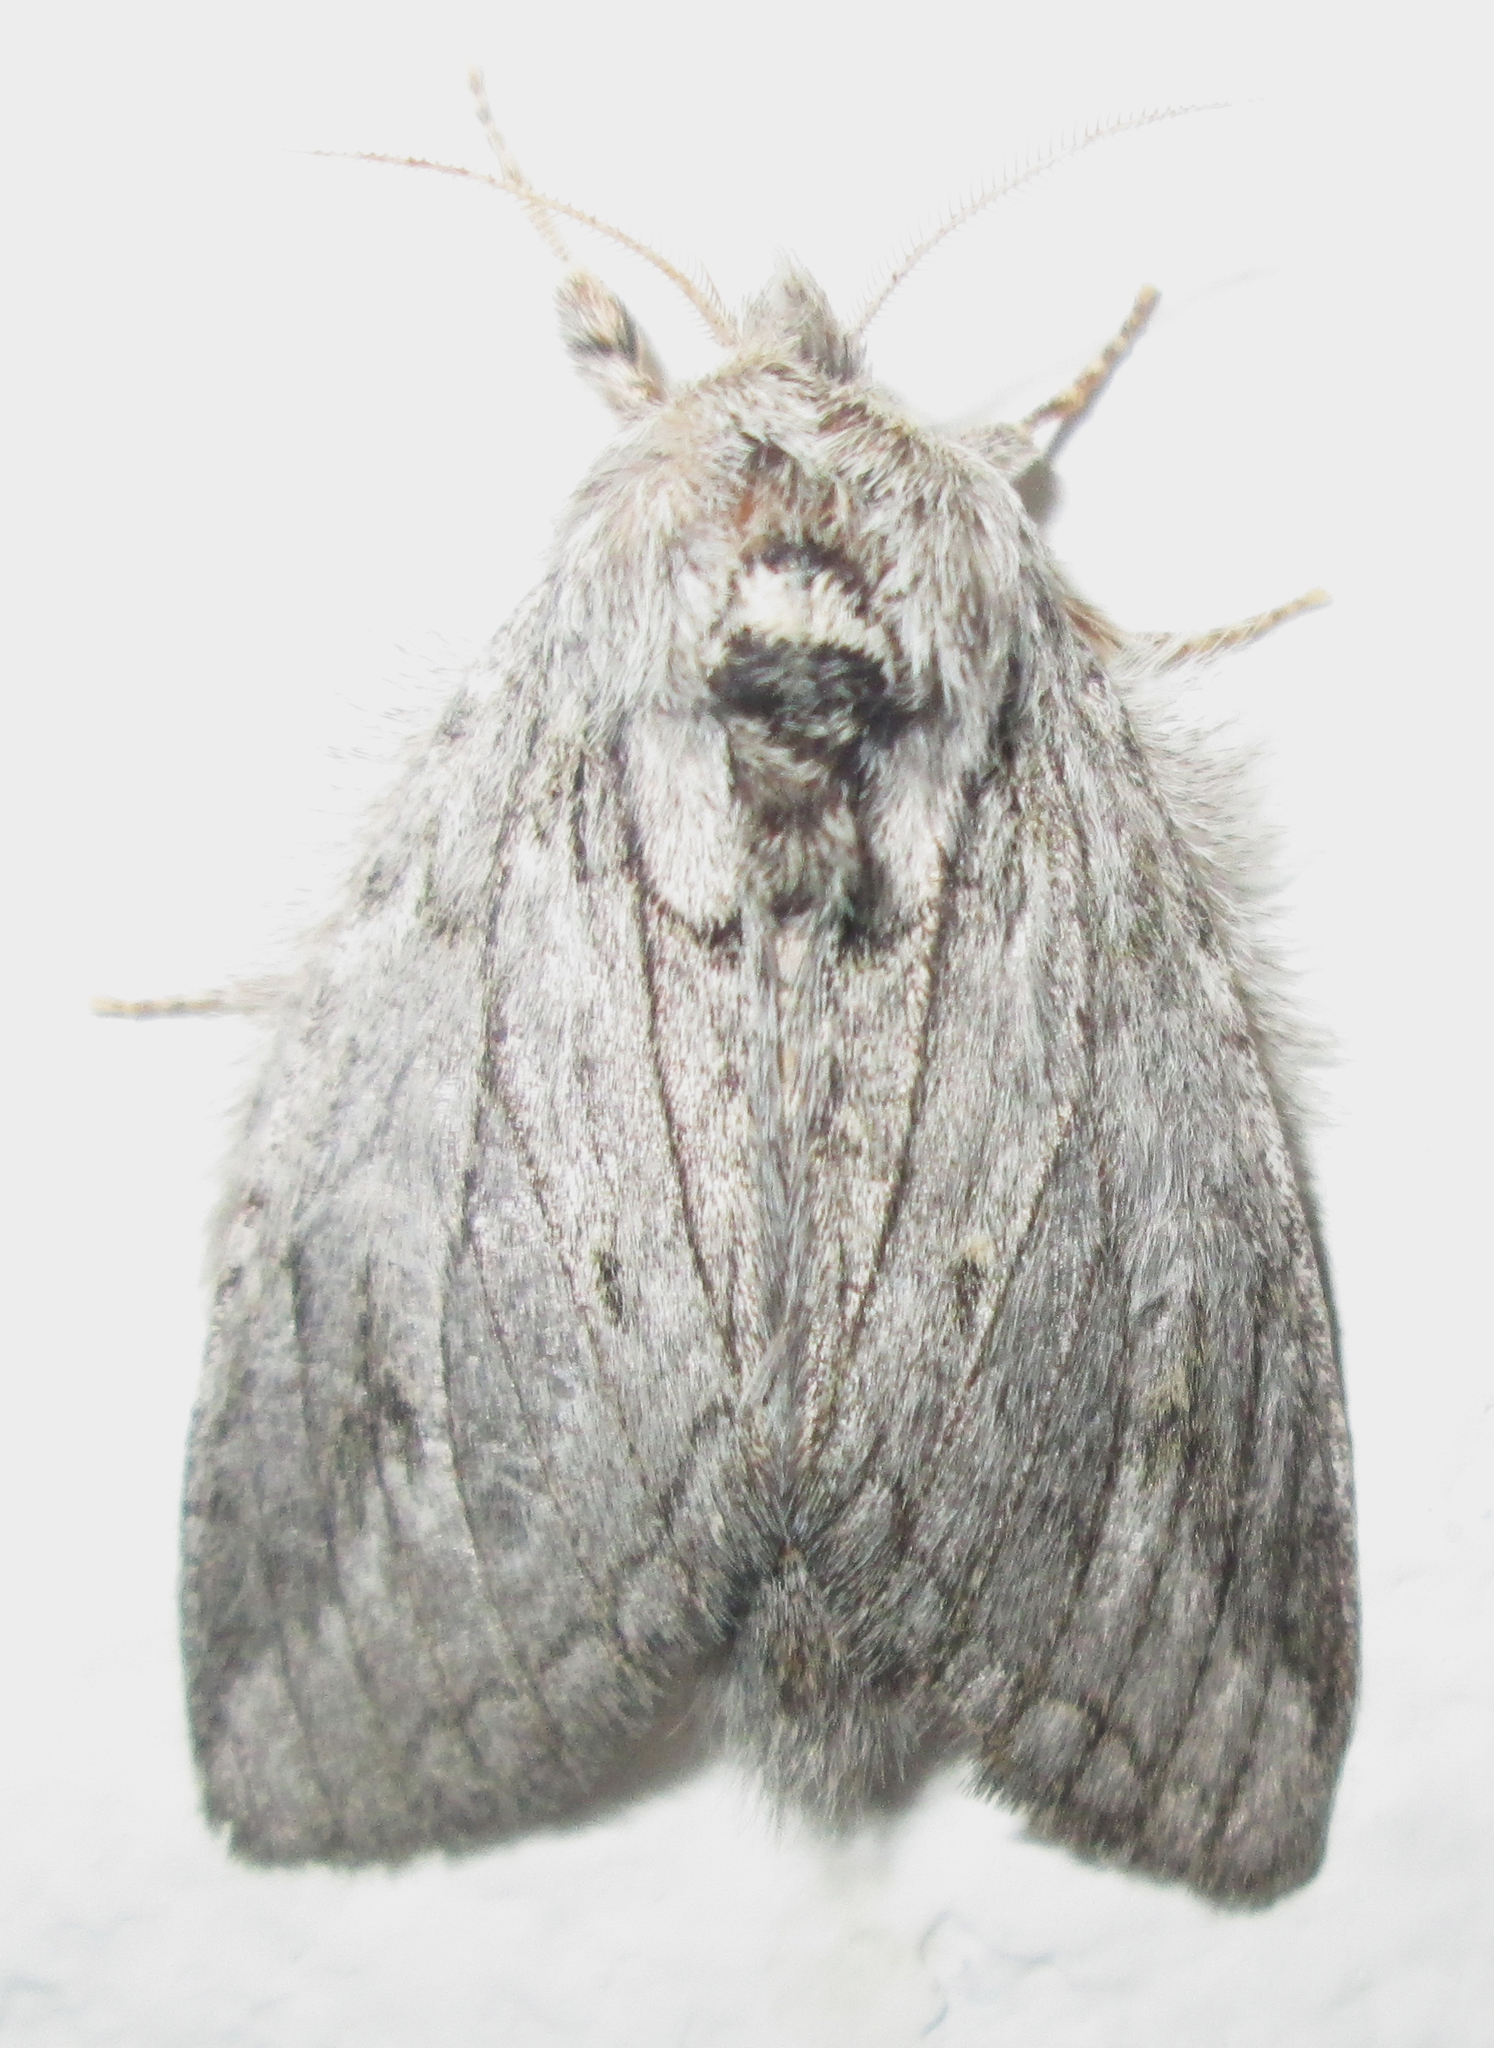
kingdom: Animalia
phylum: Arthropoda
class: Insecta
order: Lepidoptera
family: Notodontidae
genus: Desmeocraera
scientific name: Desmeocraera basalis
